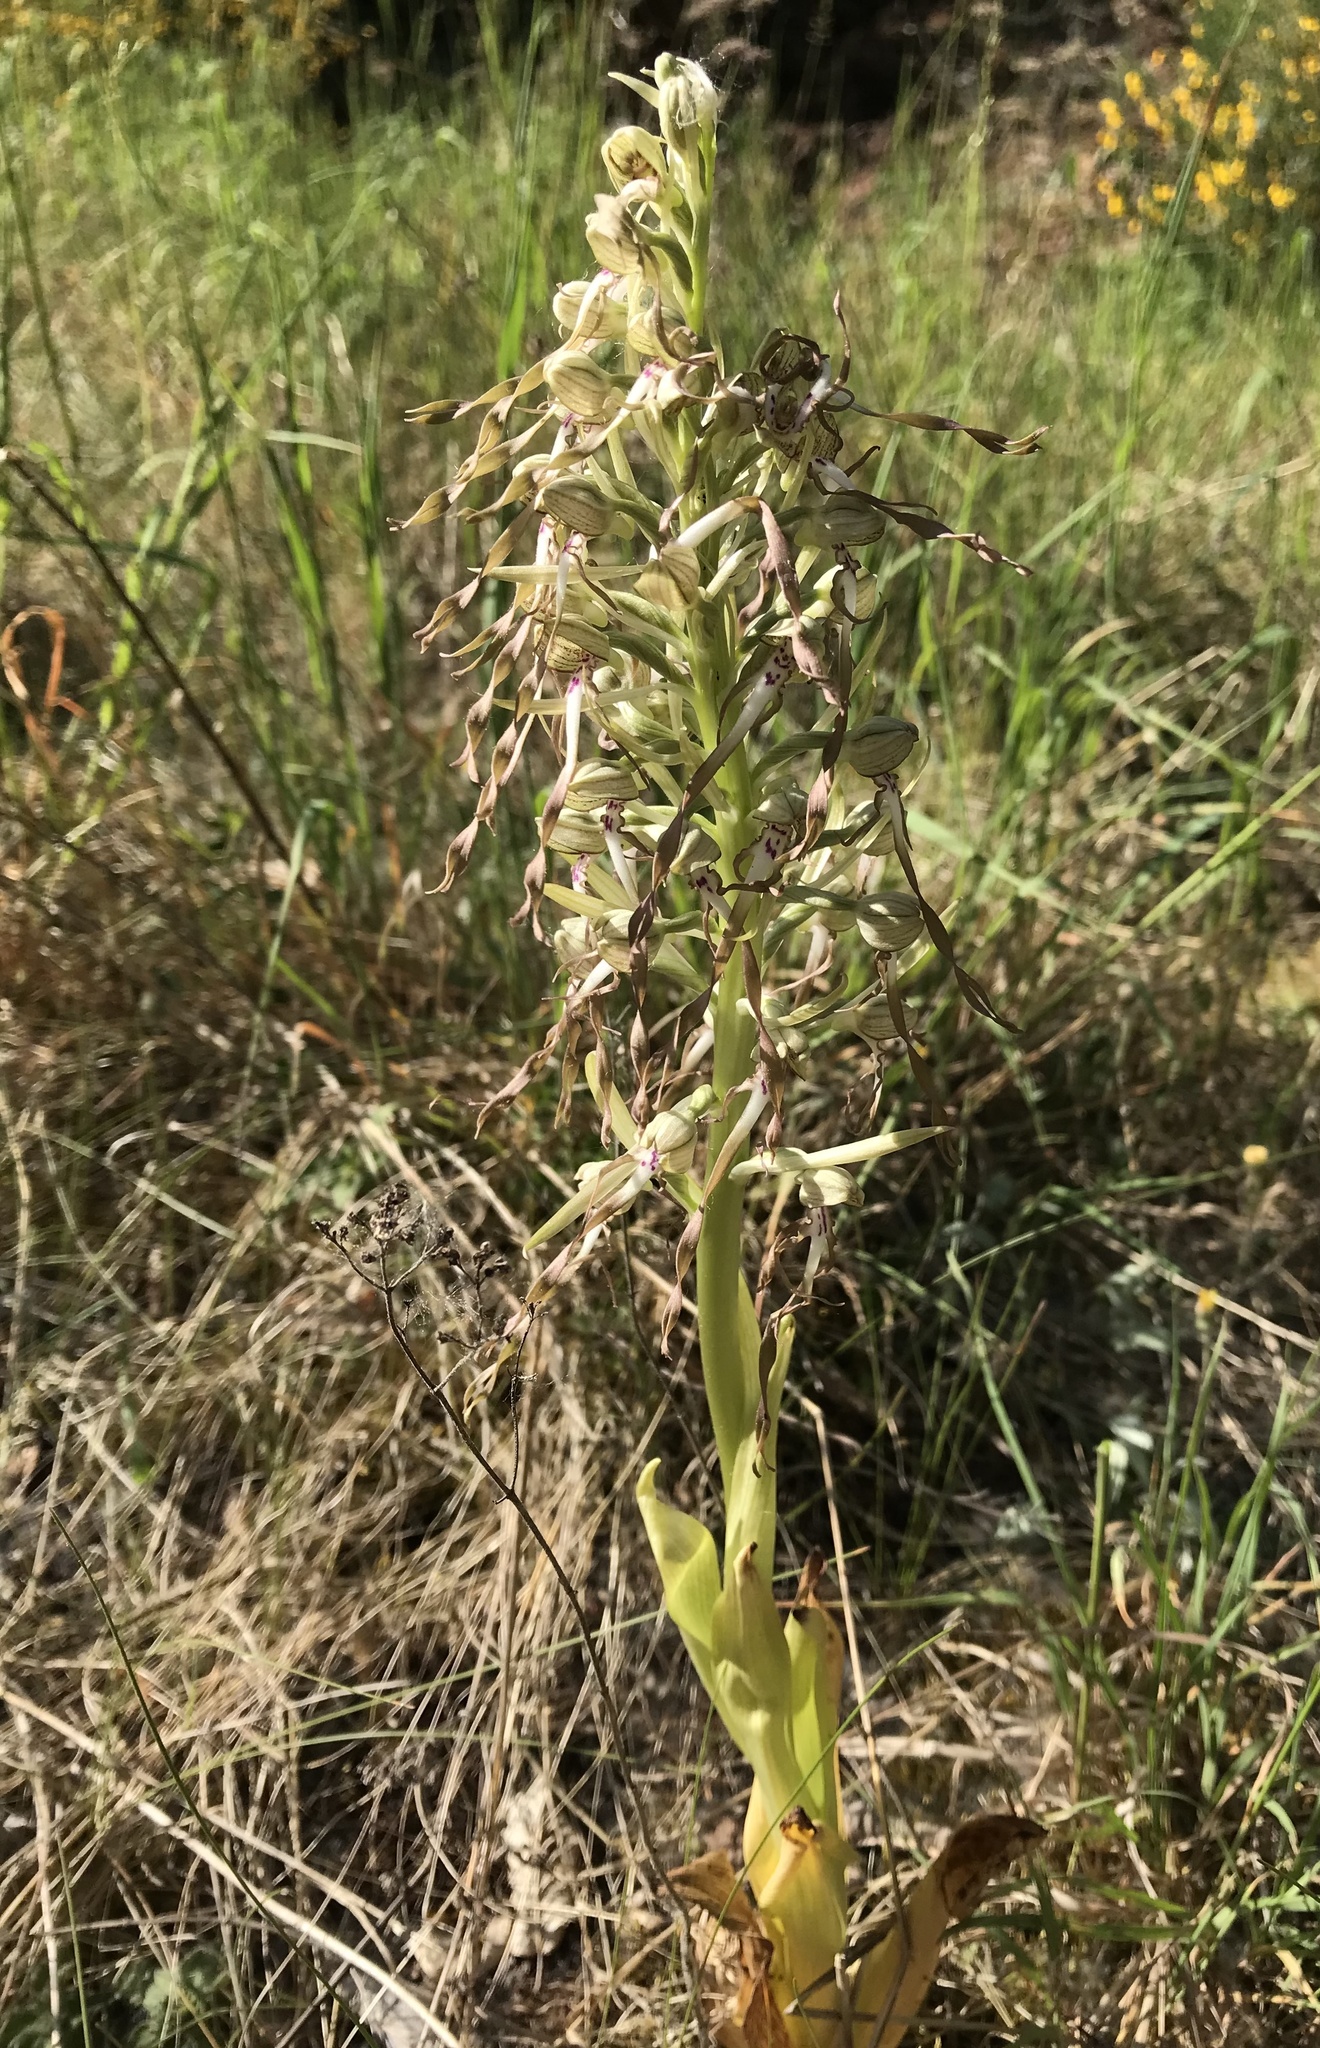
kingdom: Plantae
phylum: Tracheophyta
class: Liliopsida
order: Asparagales
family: Orchidaceae
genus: Himantoglossum
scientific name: Himantoglossum hircinum
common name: Lizard orchid
